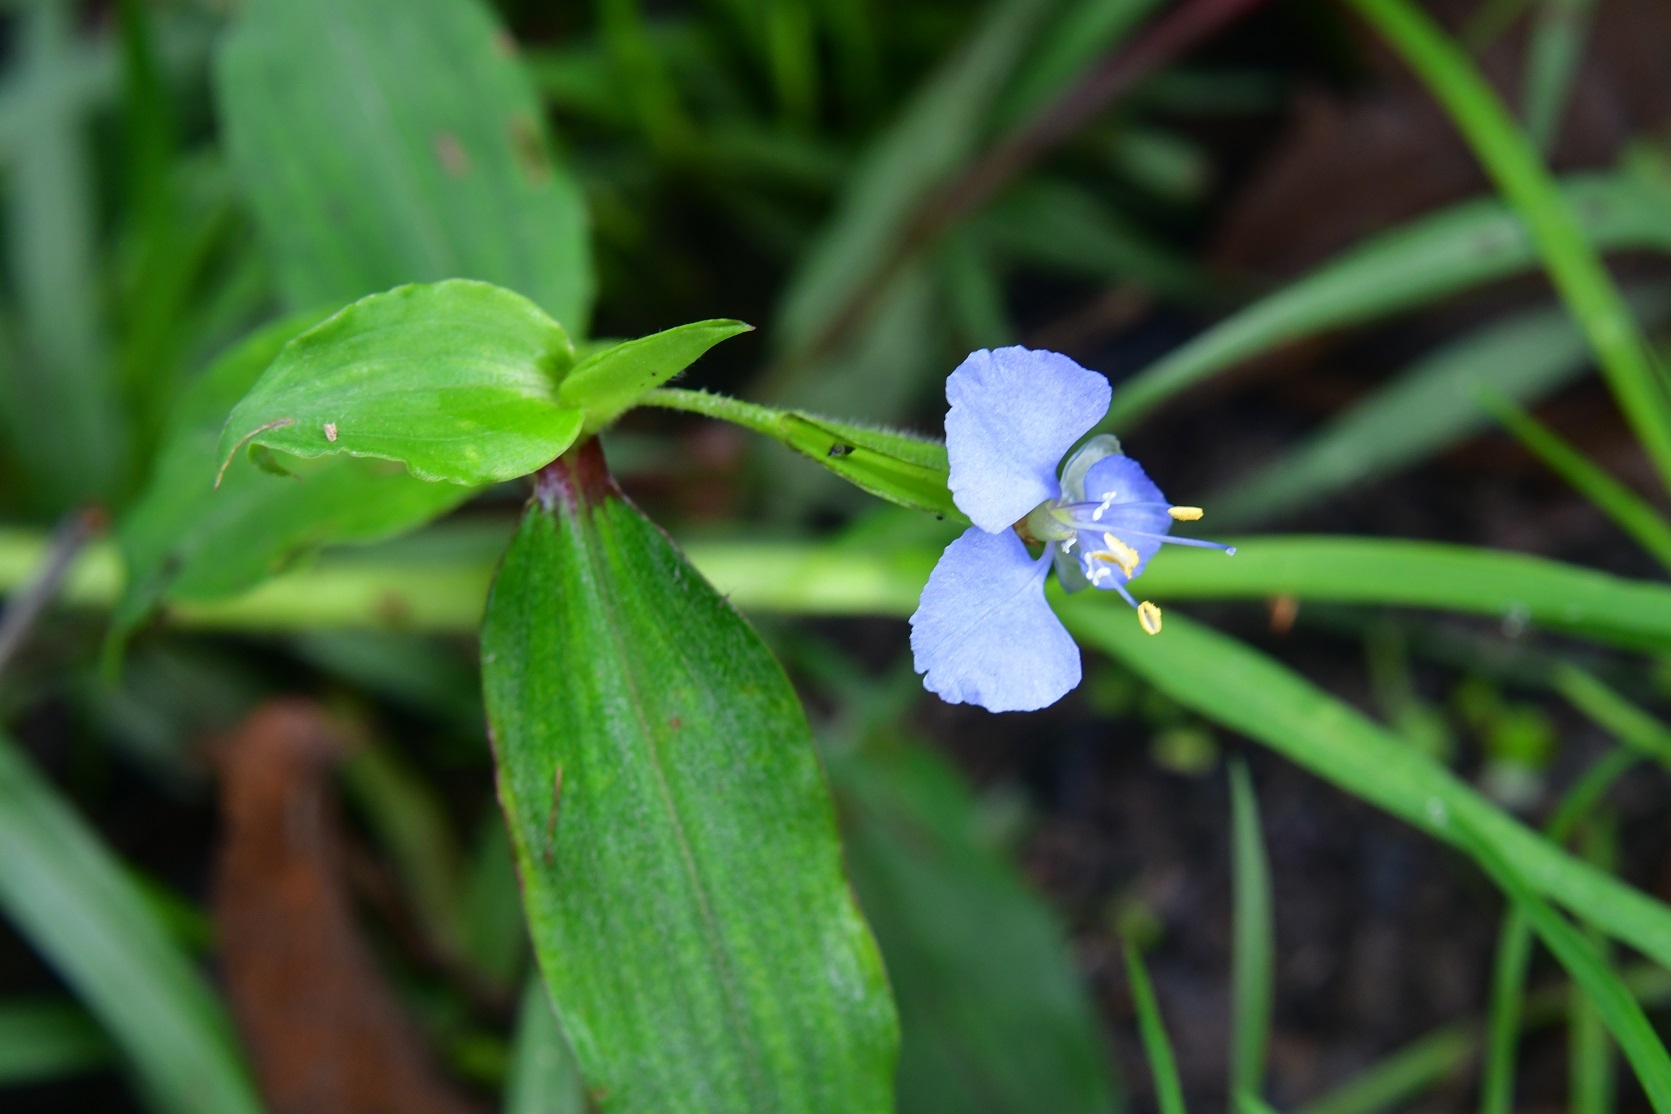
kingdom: Plantae
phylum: Tracheophyta
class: Liliopsida
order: Commelinales
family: Commelinaceae
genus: Commelina
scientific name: Commelina diffusa
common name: Climbing dayflower
